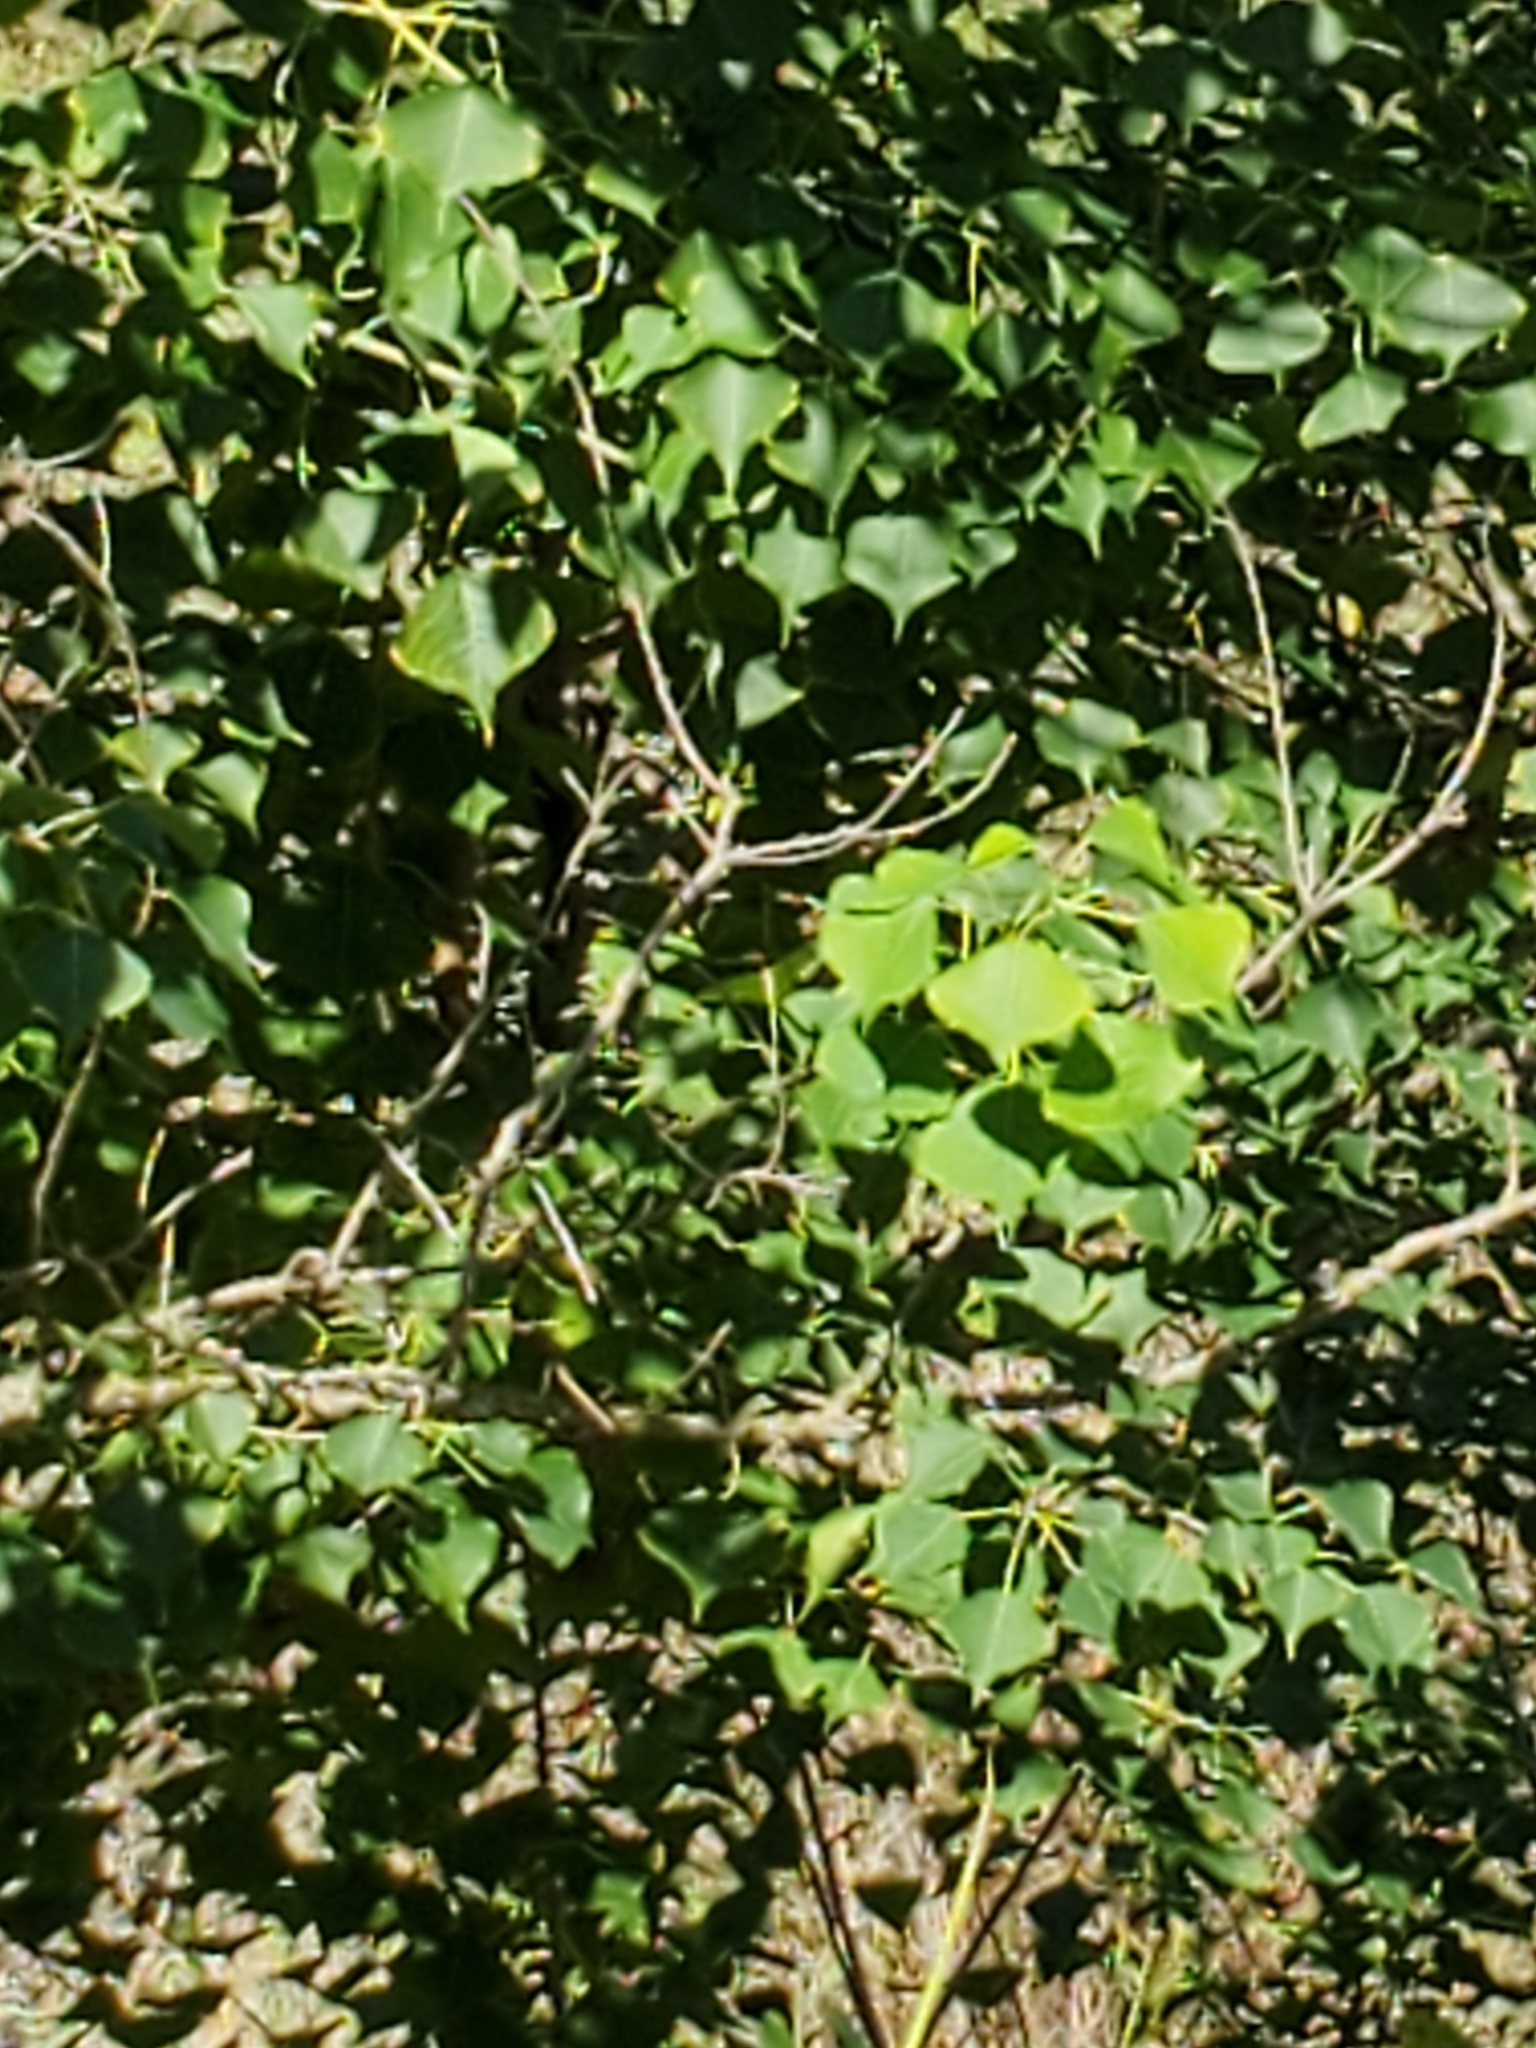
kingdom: Plantae
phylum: Tracheophyta
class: Magnoliopsida
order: Malpighiales
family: Euphorbiaceae
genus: Triadica
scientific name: Triadica sebifera
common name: Chinese tallow
